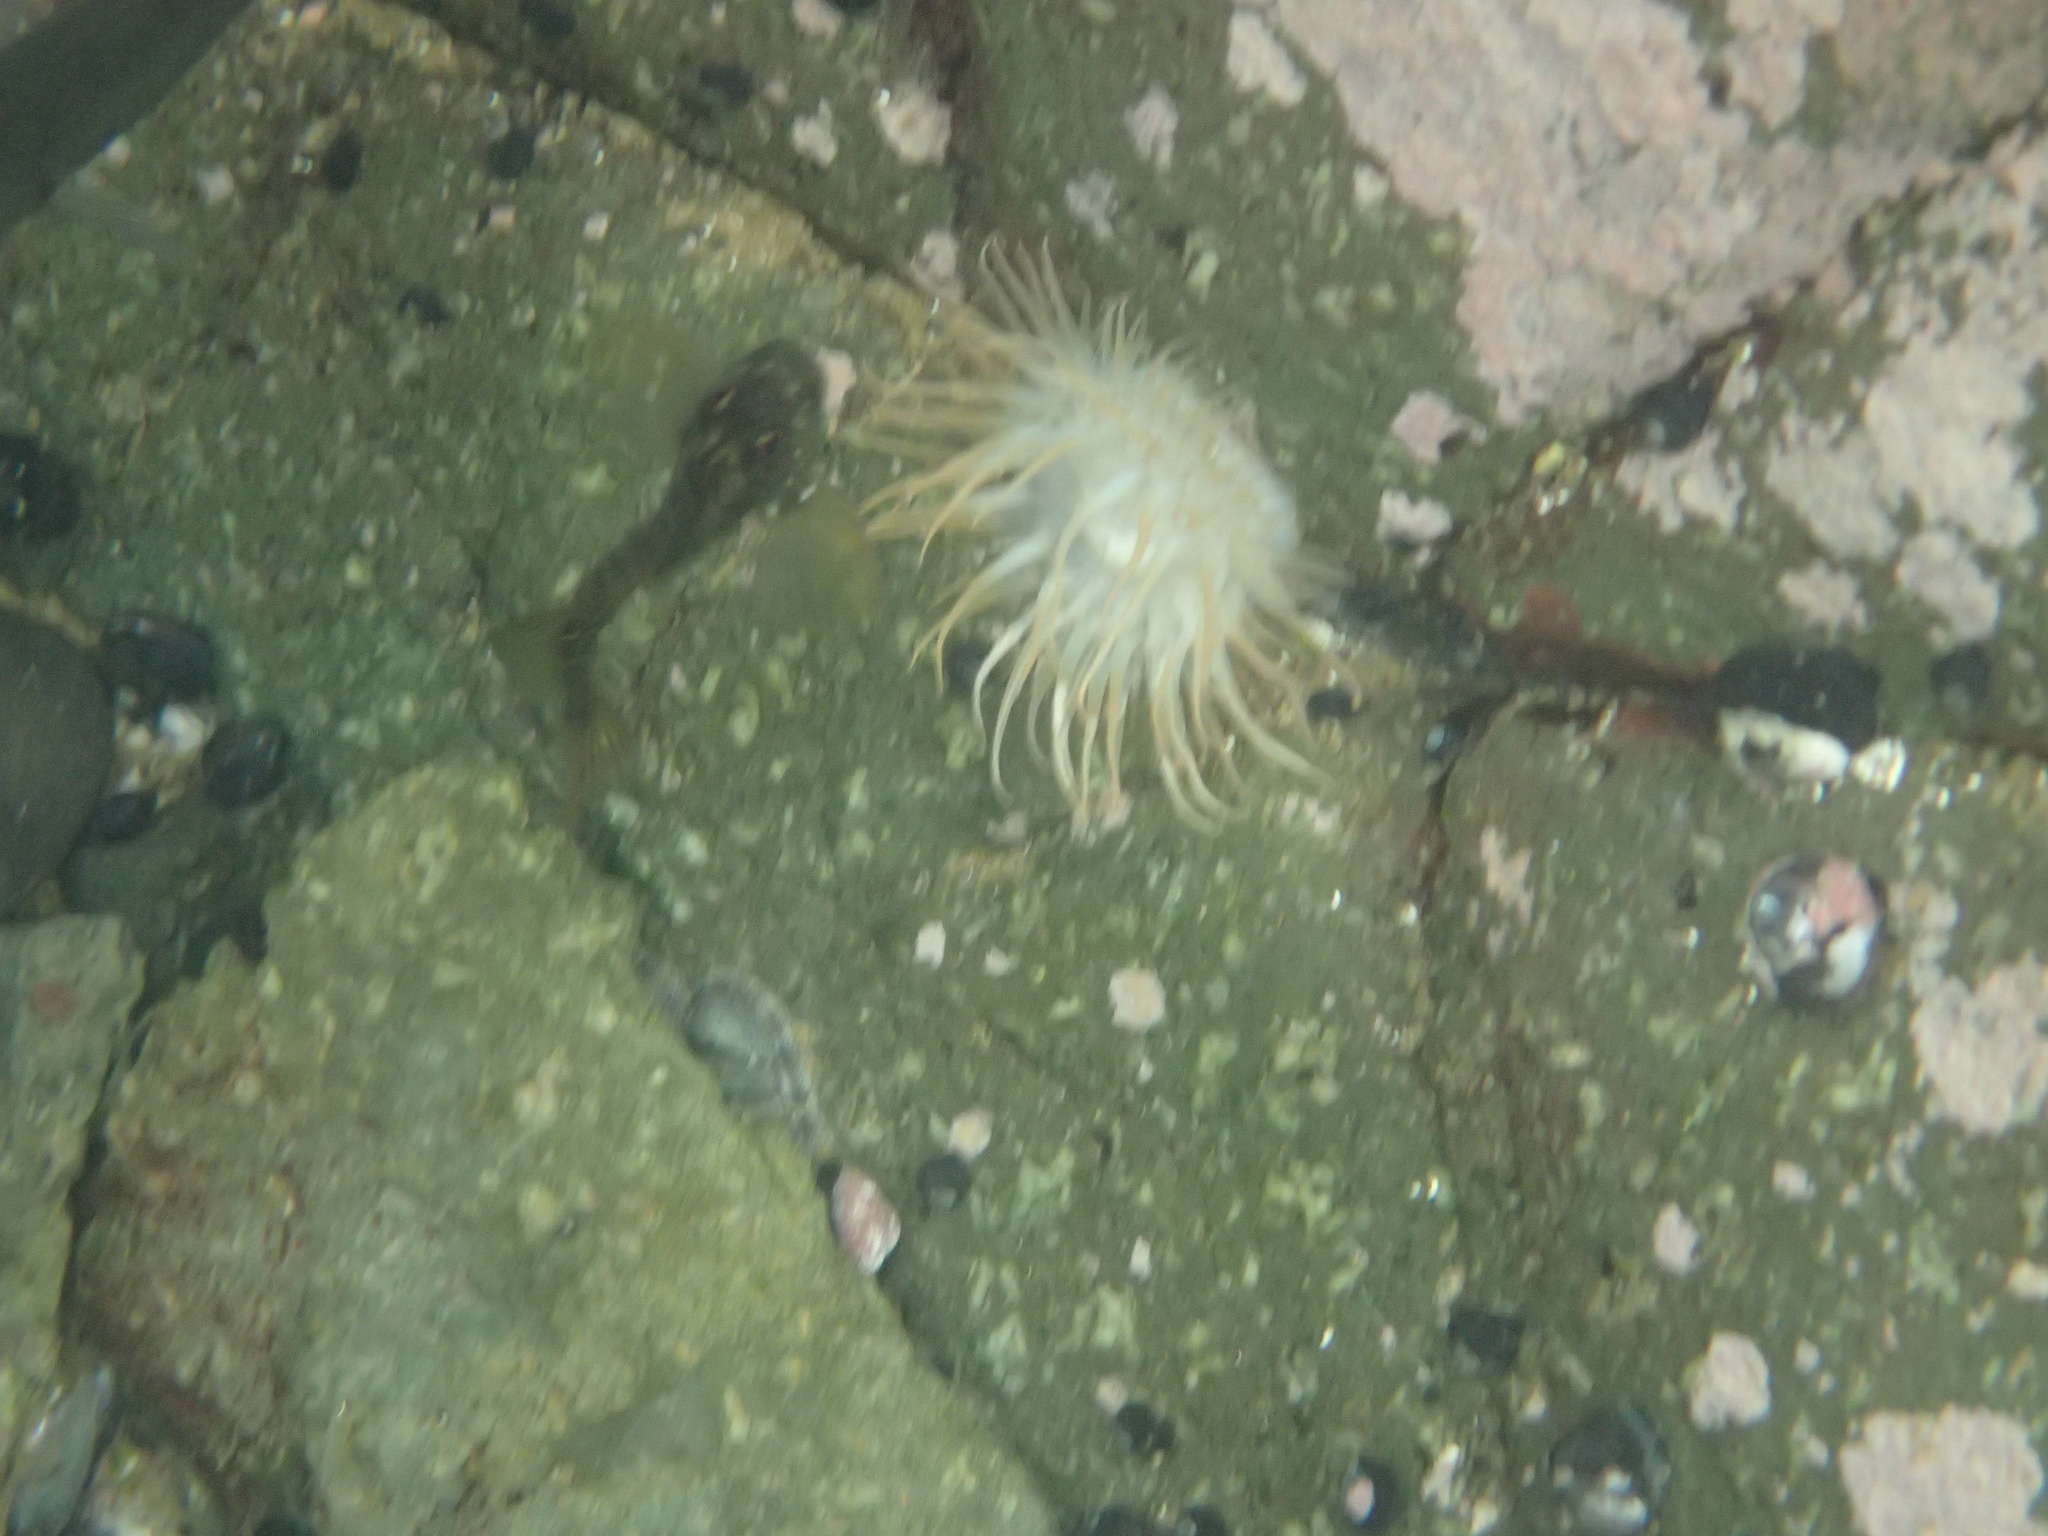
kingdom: Animalia
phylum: Cnidaria
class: Anthozoa
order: Actiniaria
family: Sagartiidae
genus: Anthothoe
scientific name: Anthothoe chilensis
